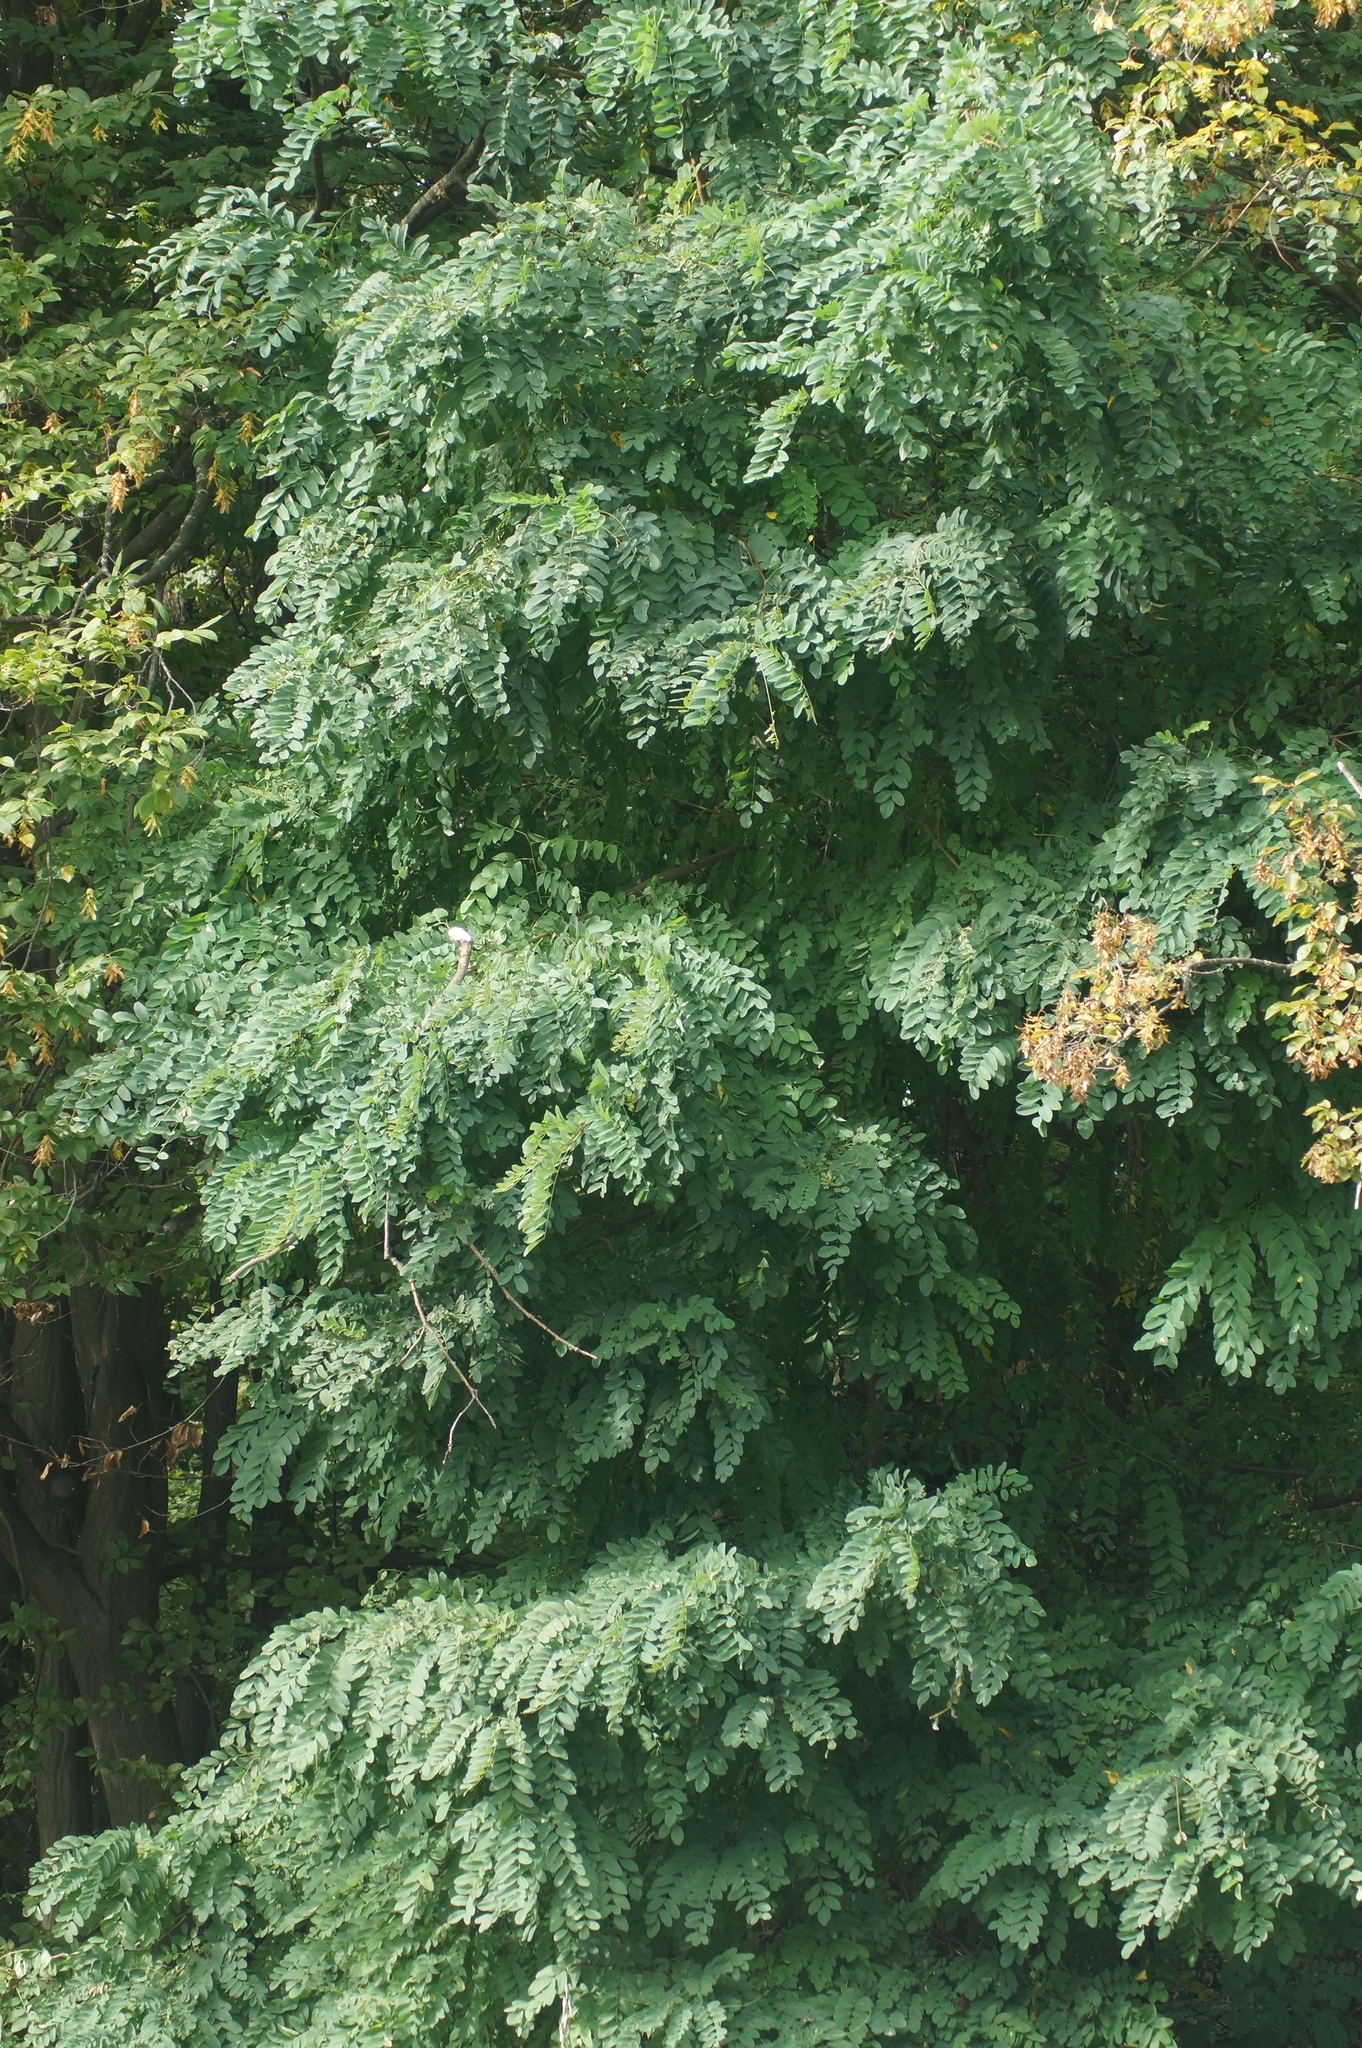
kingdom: Plantae
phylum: Tracheophyta
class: Magnoliopsida
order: Fabales
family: Fabaceae
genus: Robinia
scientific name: Robinia pseudoacacia
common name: Black locust
